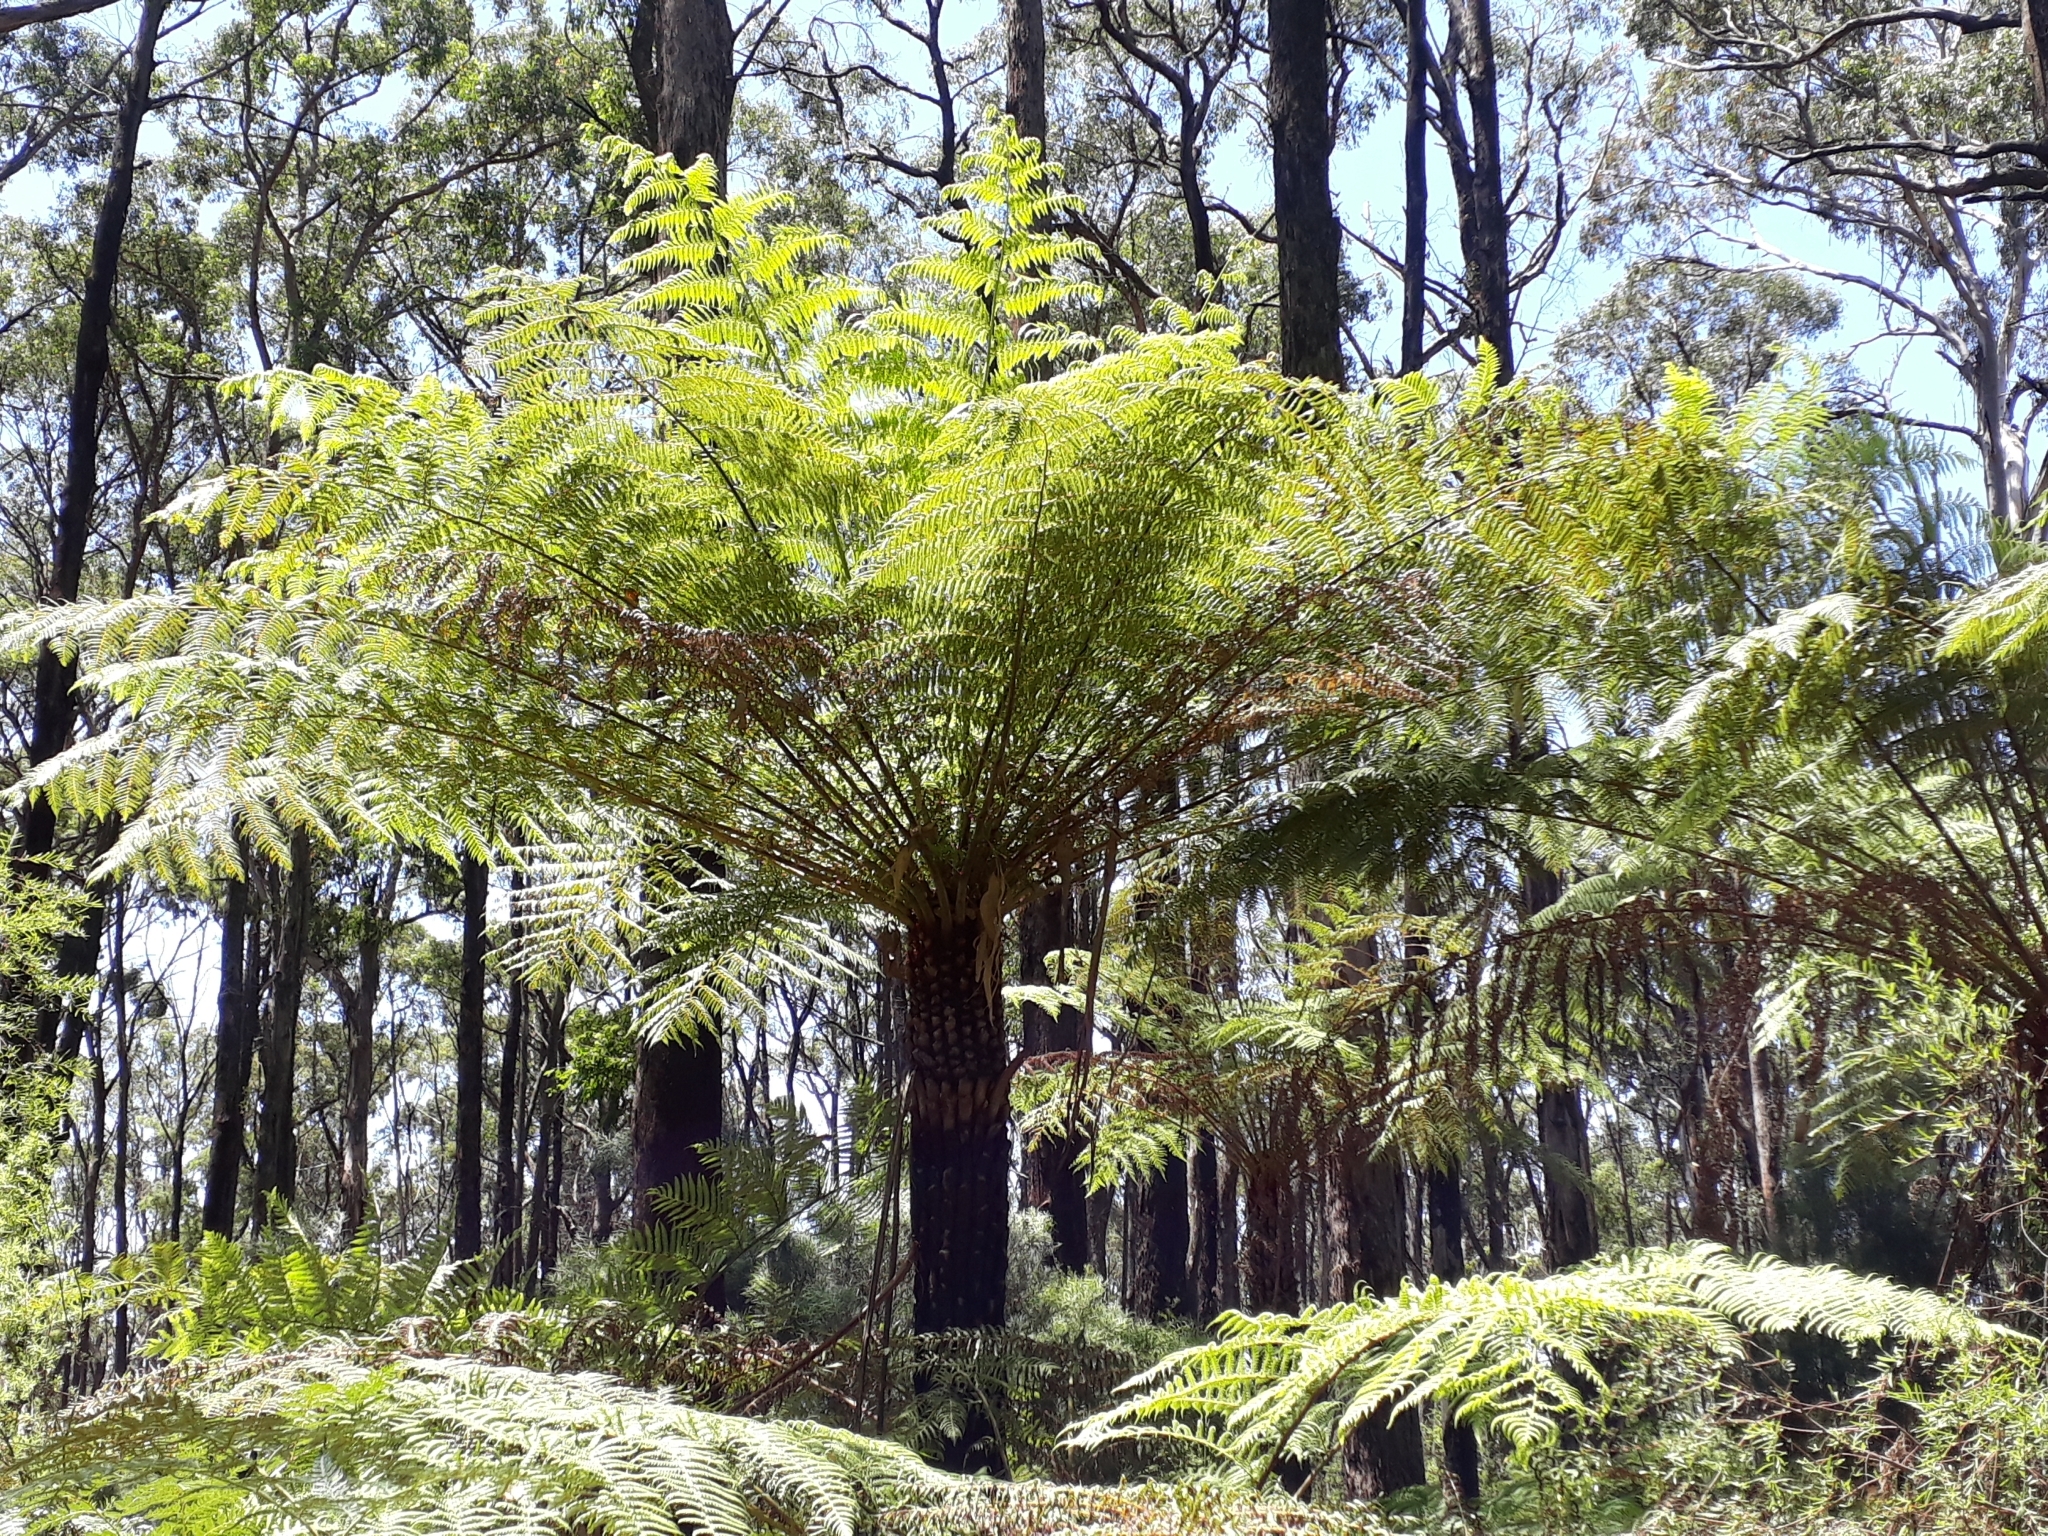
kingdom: Plantae
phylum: Tracheophyta
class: Polypodiopsida
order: Cyatheales
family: Cyatheaceae
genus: Alsophila
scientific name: Alsophila australis
